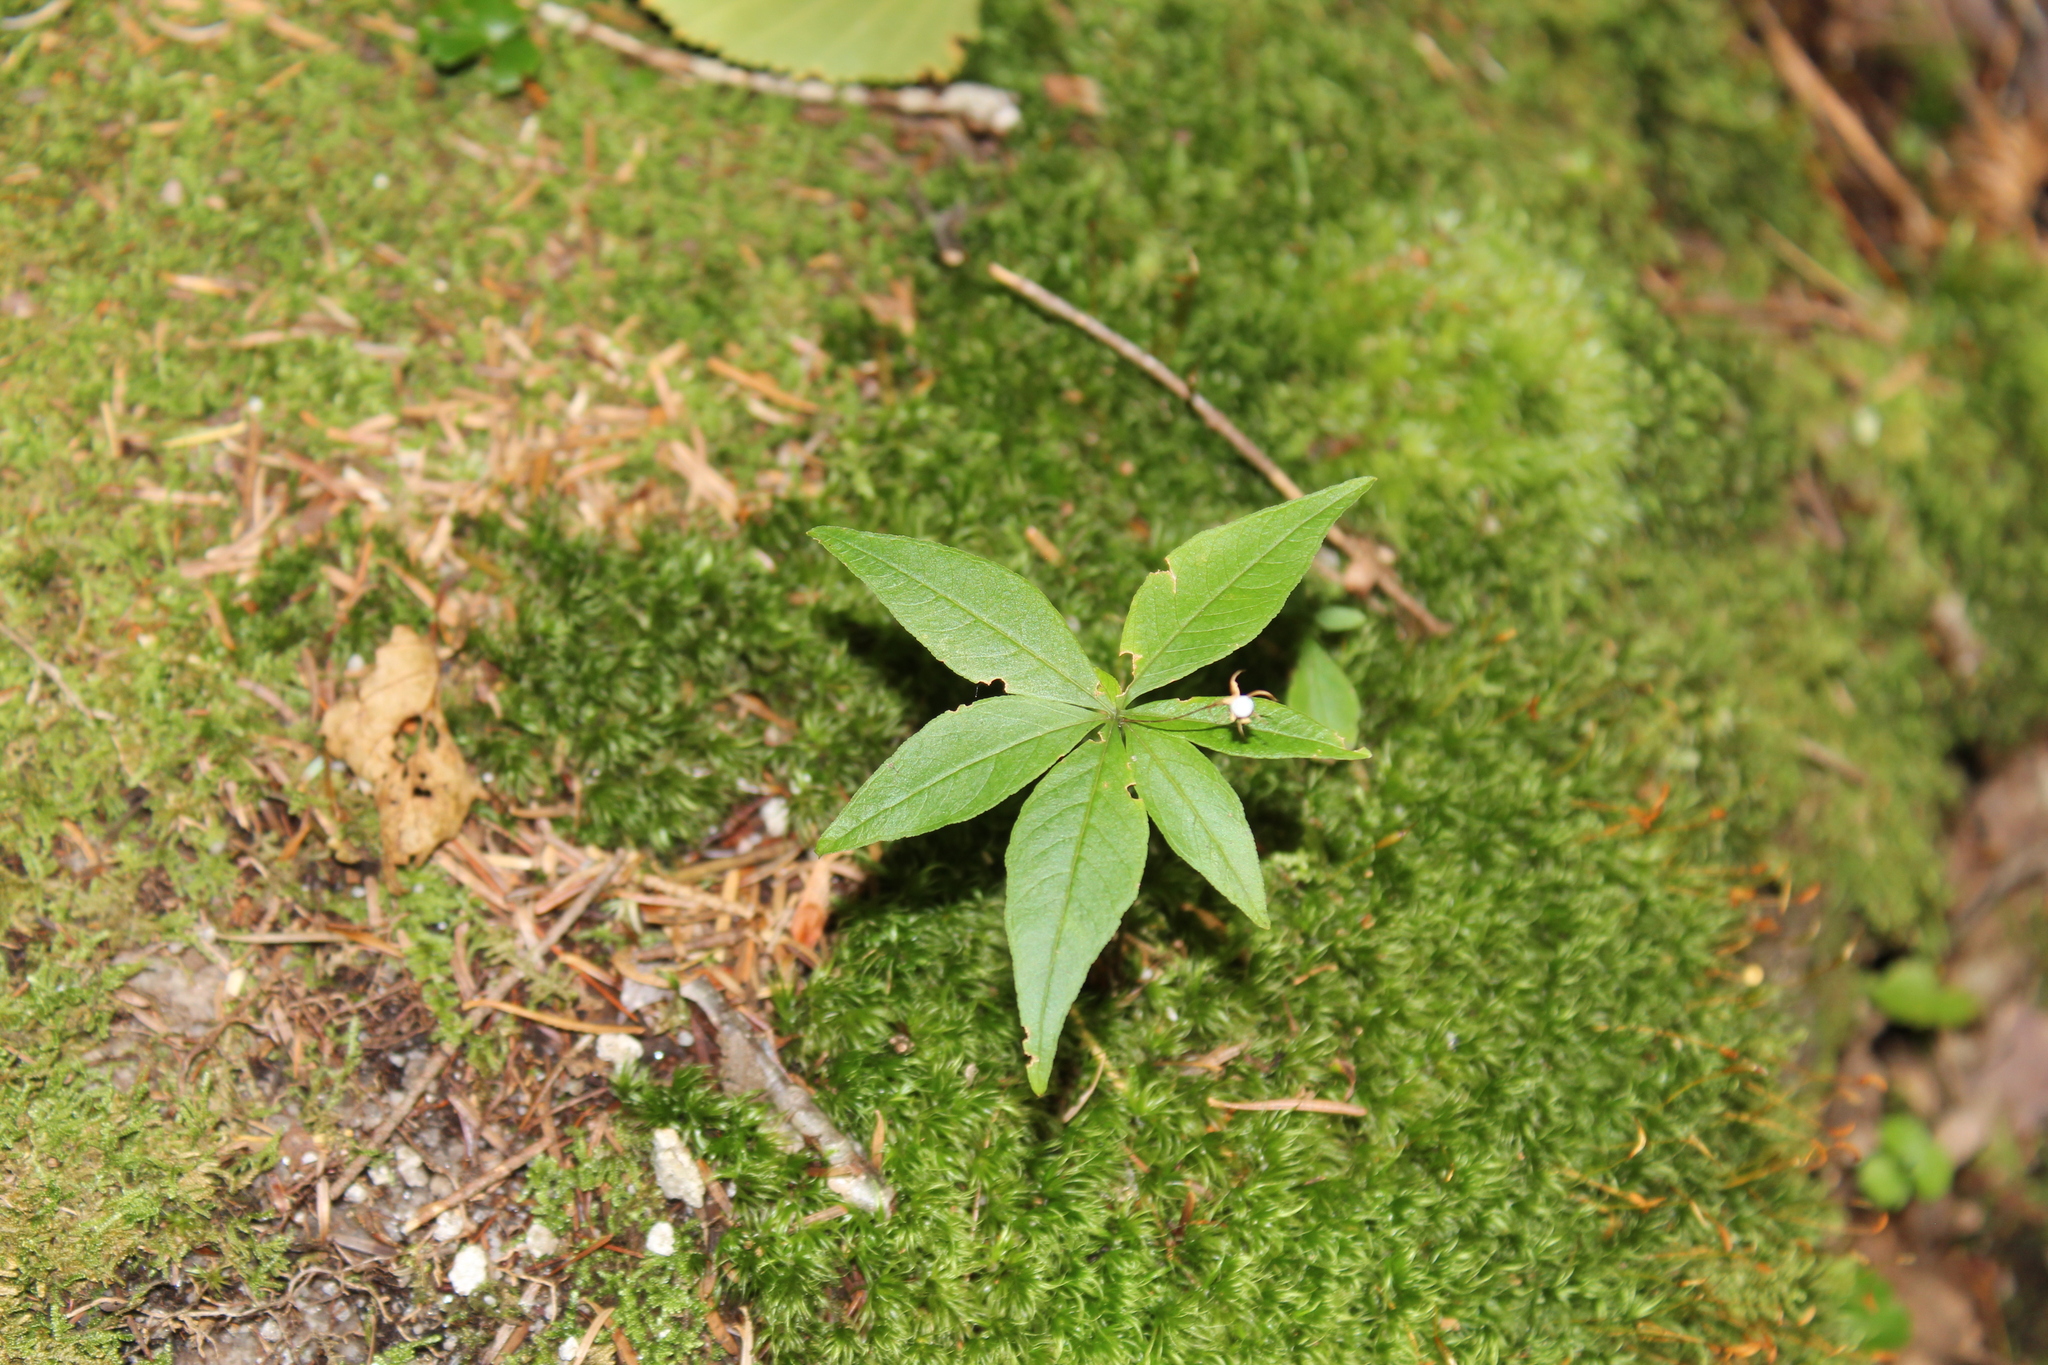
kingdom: Plantae
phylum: Tracheophyta
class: Magnoliopsida
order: Ericales
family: Primulaceae
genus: Lysimachia
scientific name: Lysimachia borealis
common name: American starflower
